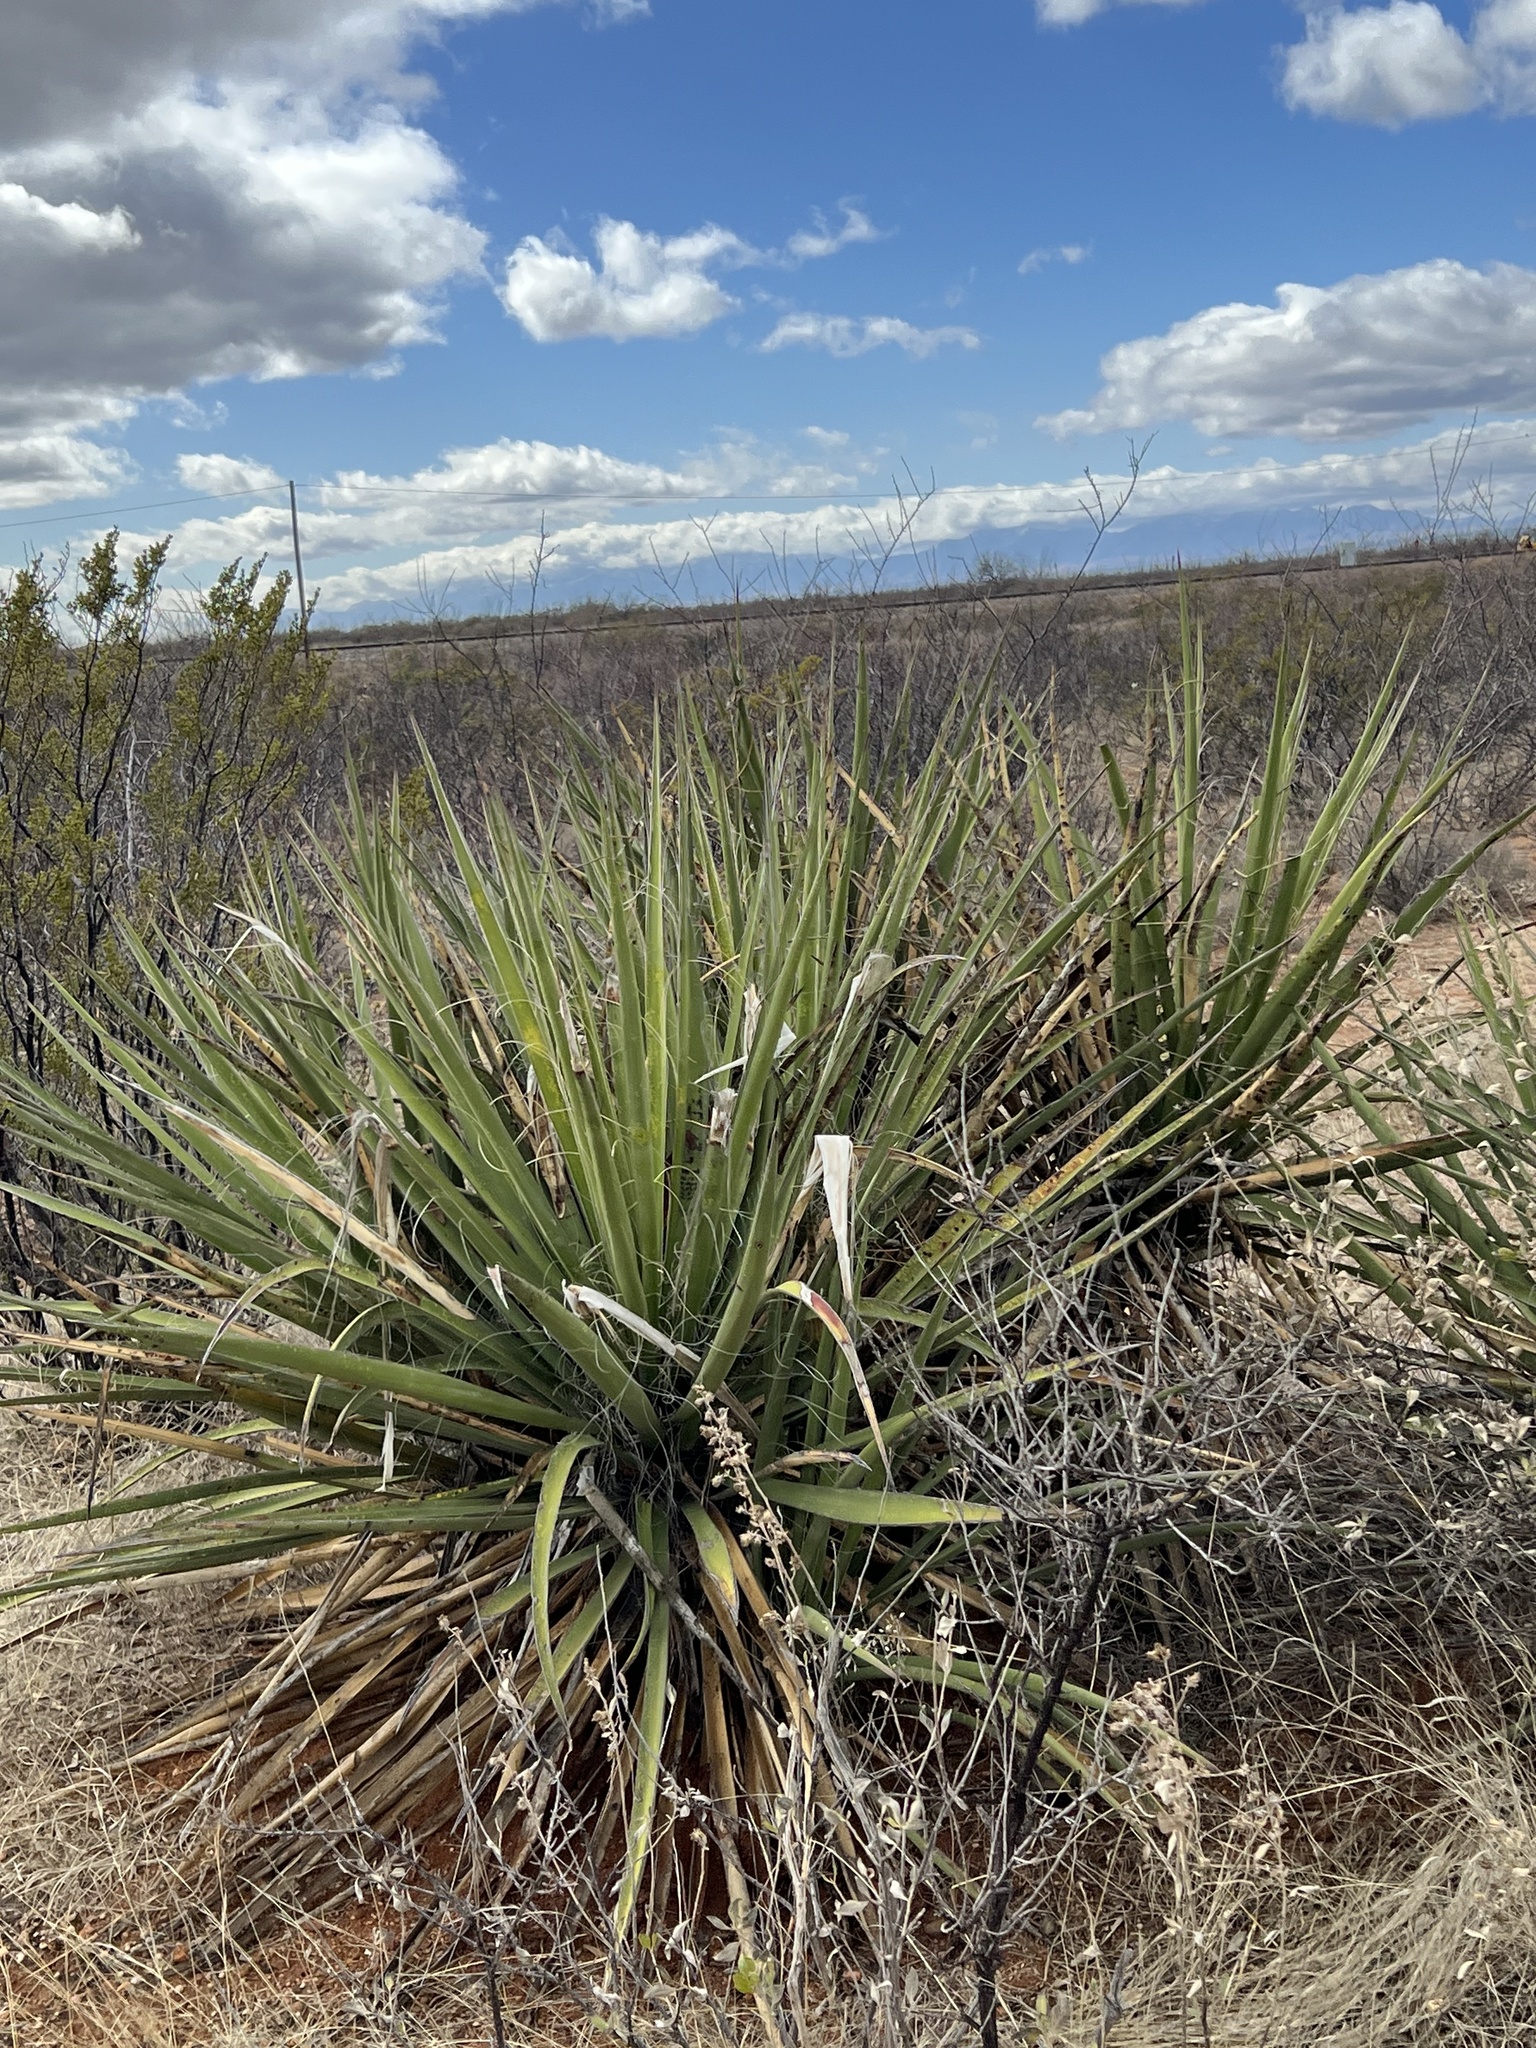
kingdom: Plantae
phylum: Tracheophyta
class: Liliopsida
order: Asparagales
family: Asparagaceae
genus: Yucca
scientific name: Yucca baccata
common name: Banana yucca
